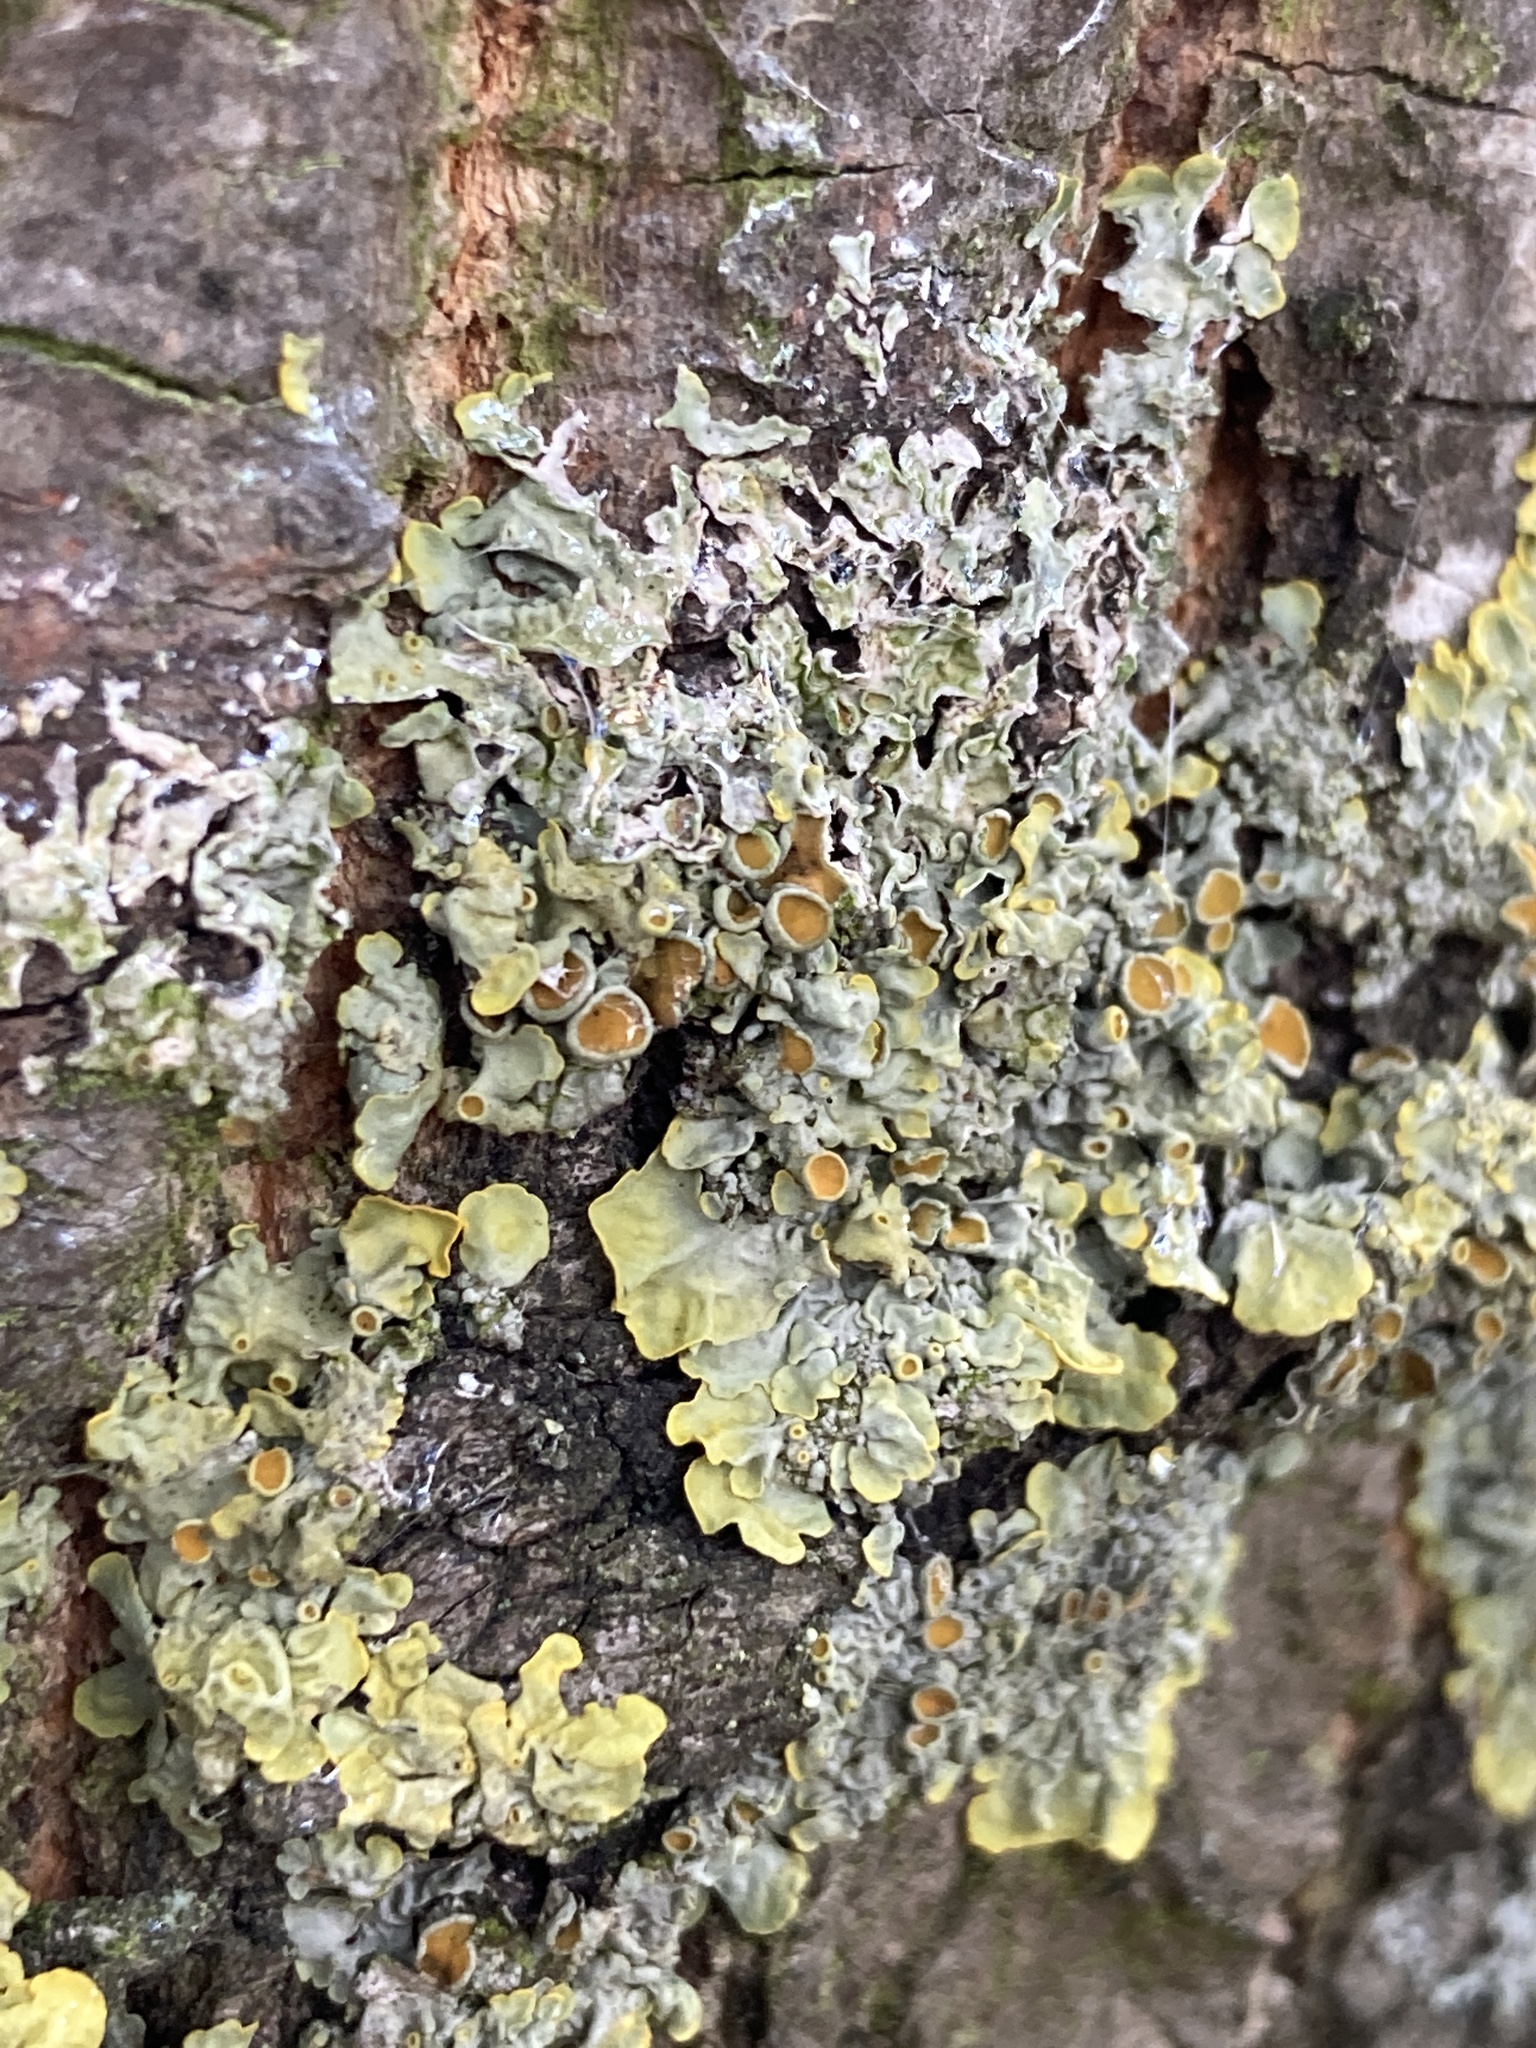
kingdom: Fungi
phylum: Ascomycota
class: Lecanoromycetes
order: Teloschistales
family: Teloschistaceae
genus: Xanthoria
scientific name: Xanthoria parietina
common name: Common orange lichen
